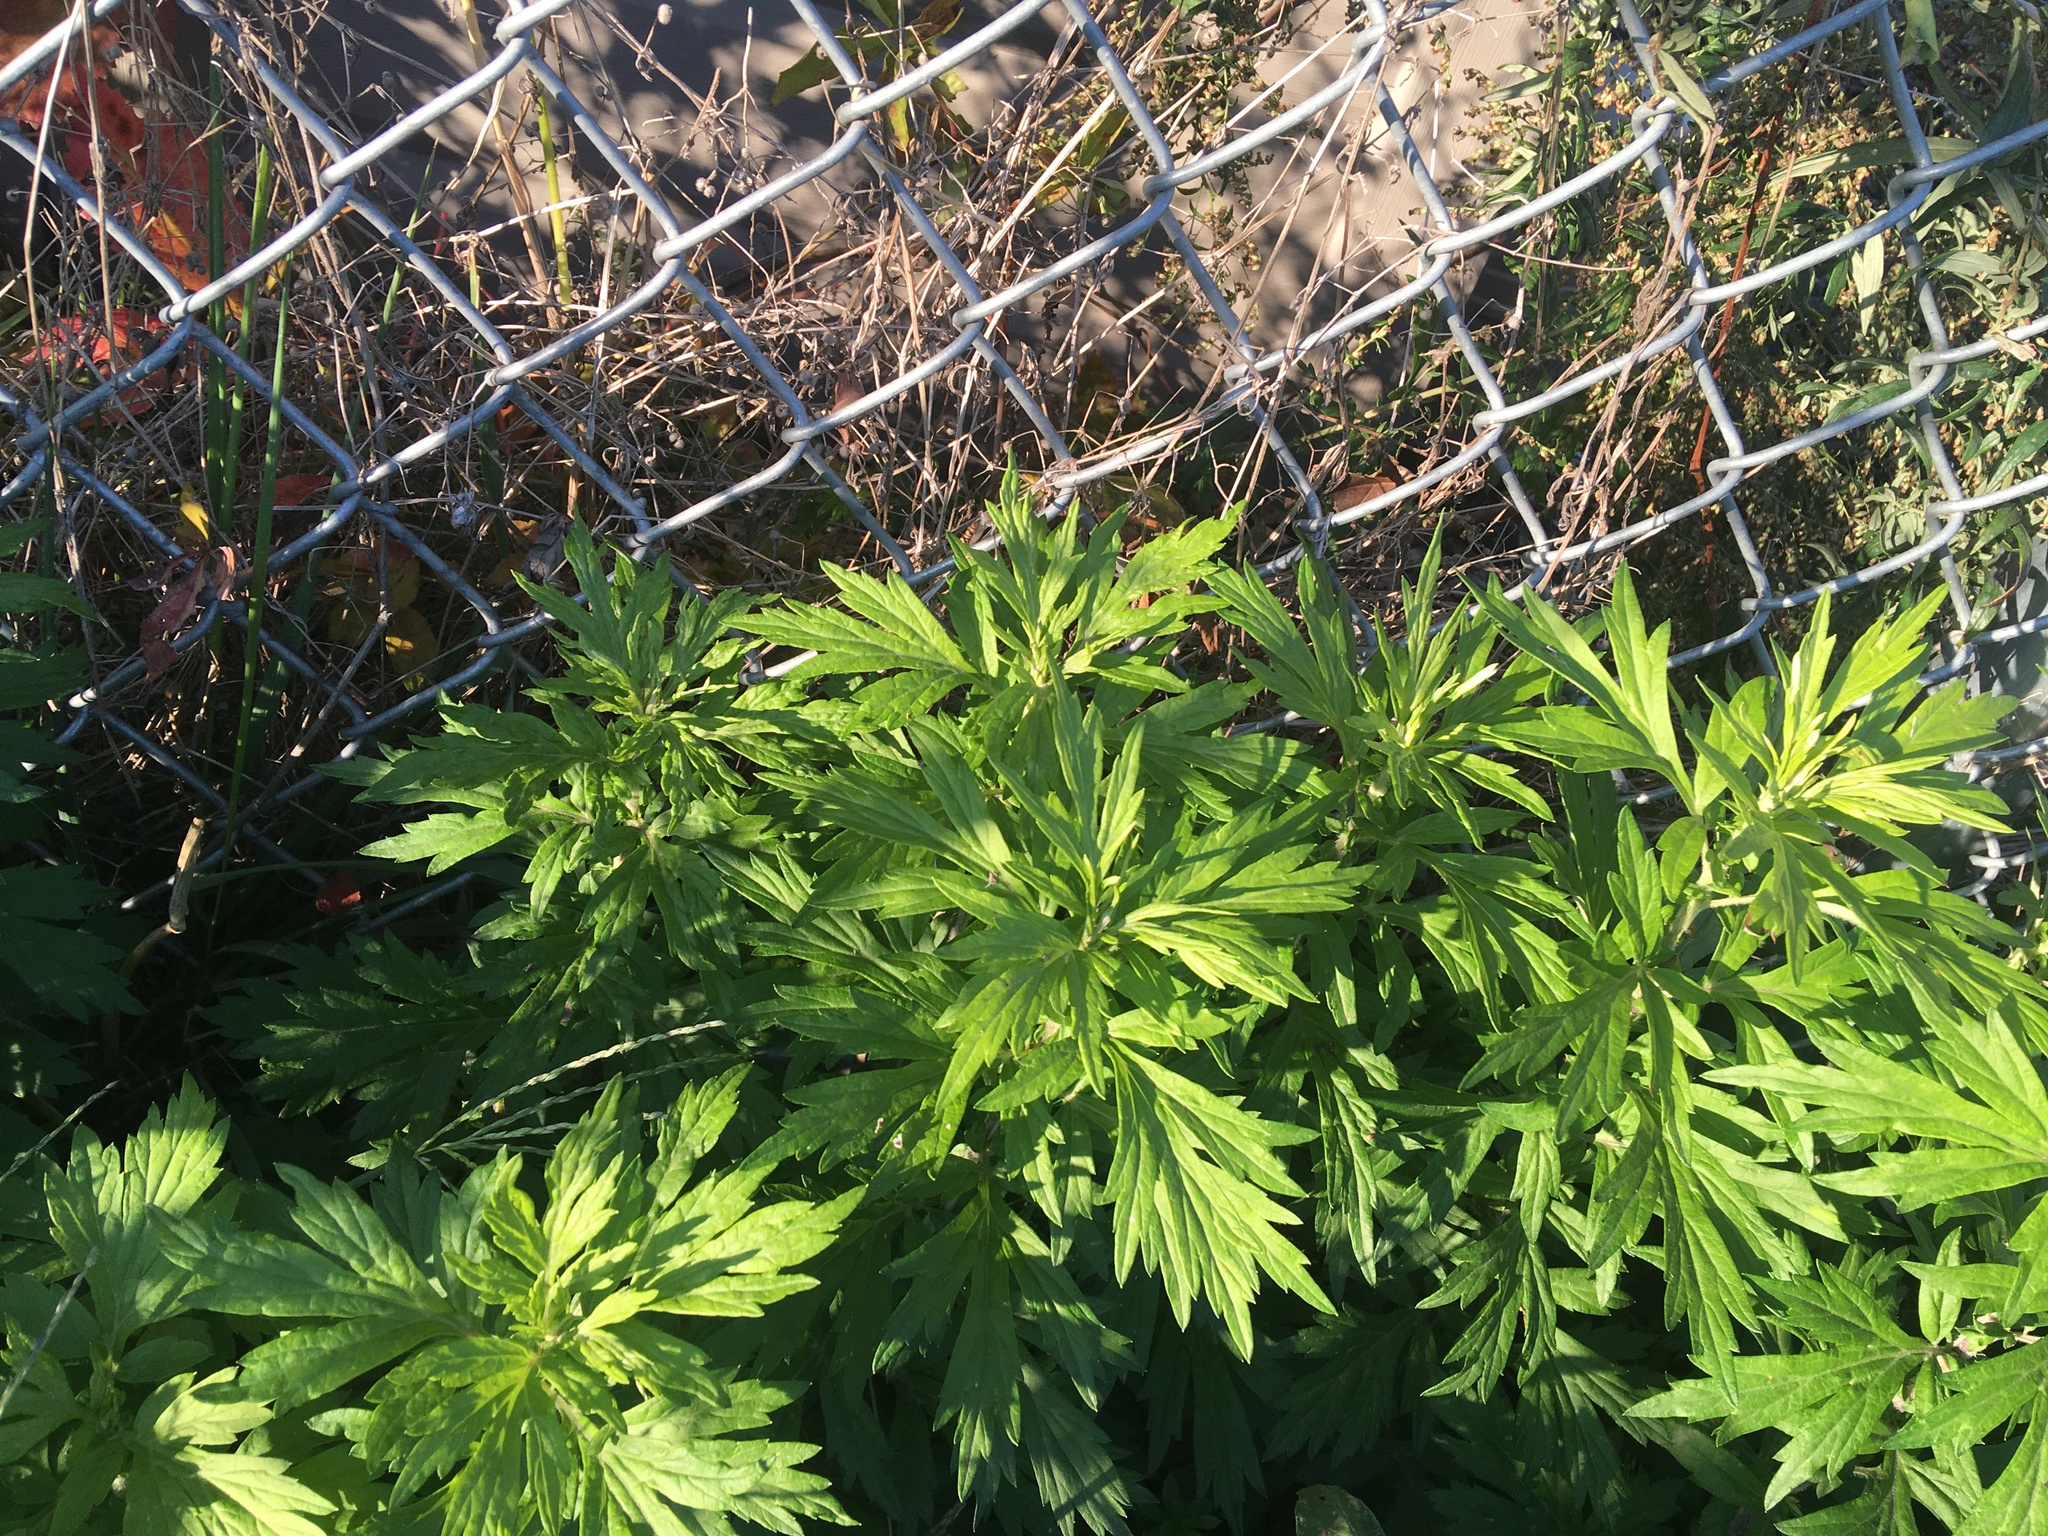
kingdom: Plantae
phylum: Tracheophyta
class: Magnoliopsida
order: Asterales
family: Asteraceae
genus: Artemisia
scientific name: Artemisia vulgaris
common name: Mugwort
